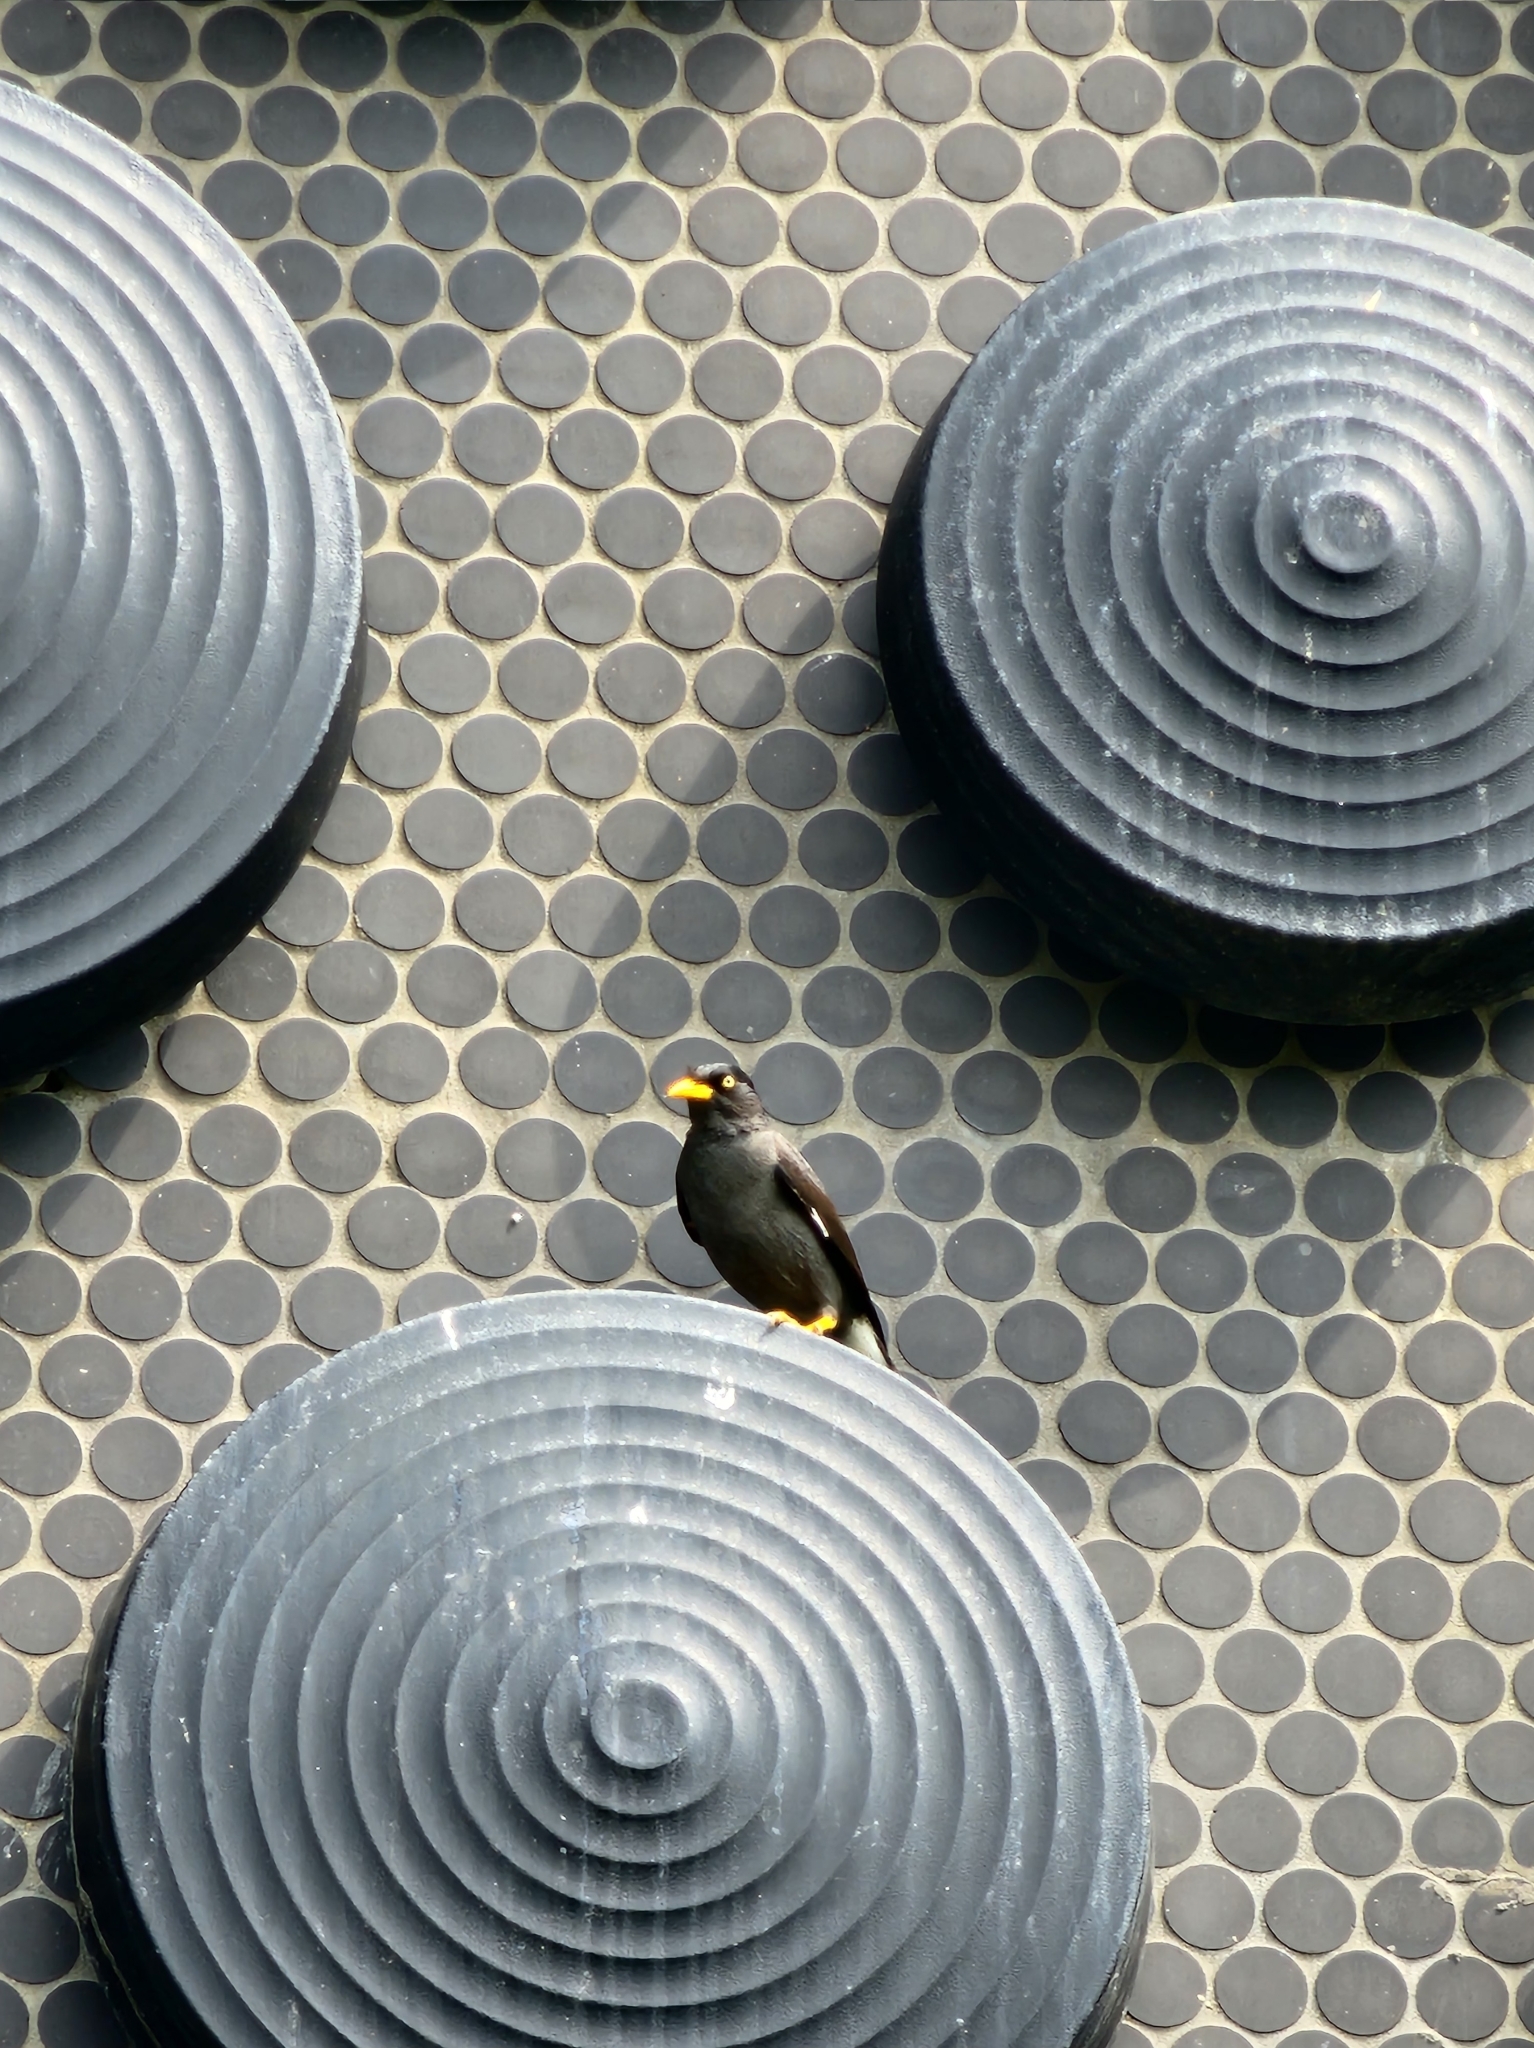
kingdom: Animalia
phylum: Chordata
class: Aves
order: Passeriformes
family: Sturnidae
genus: Acridotheres
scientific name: Acridotheres javanicus
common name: Javan myna
